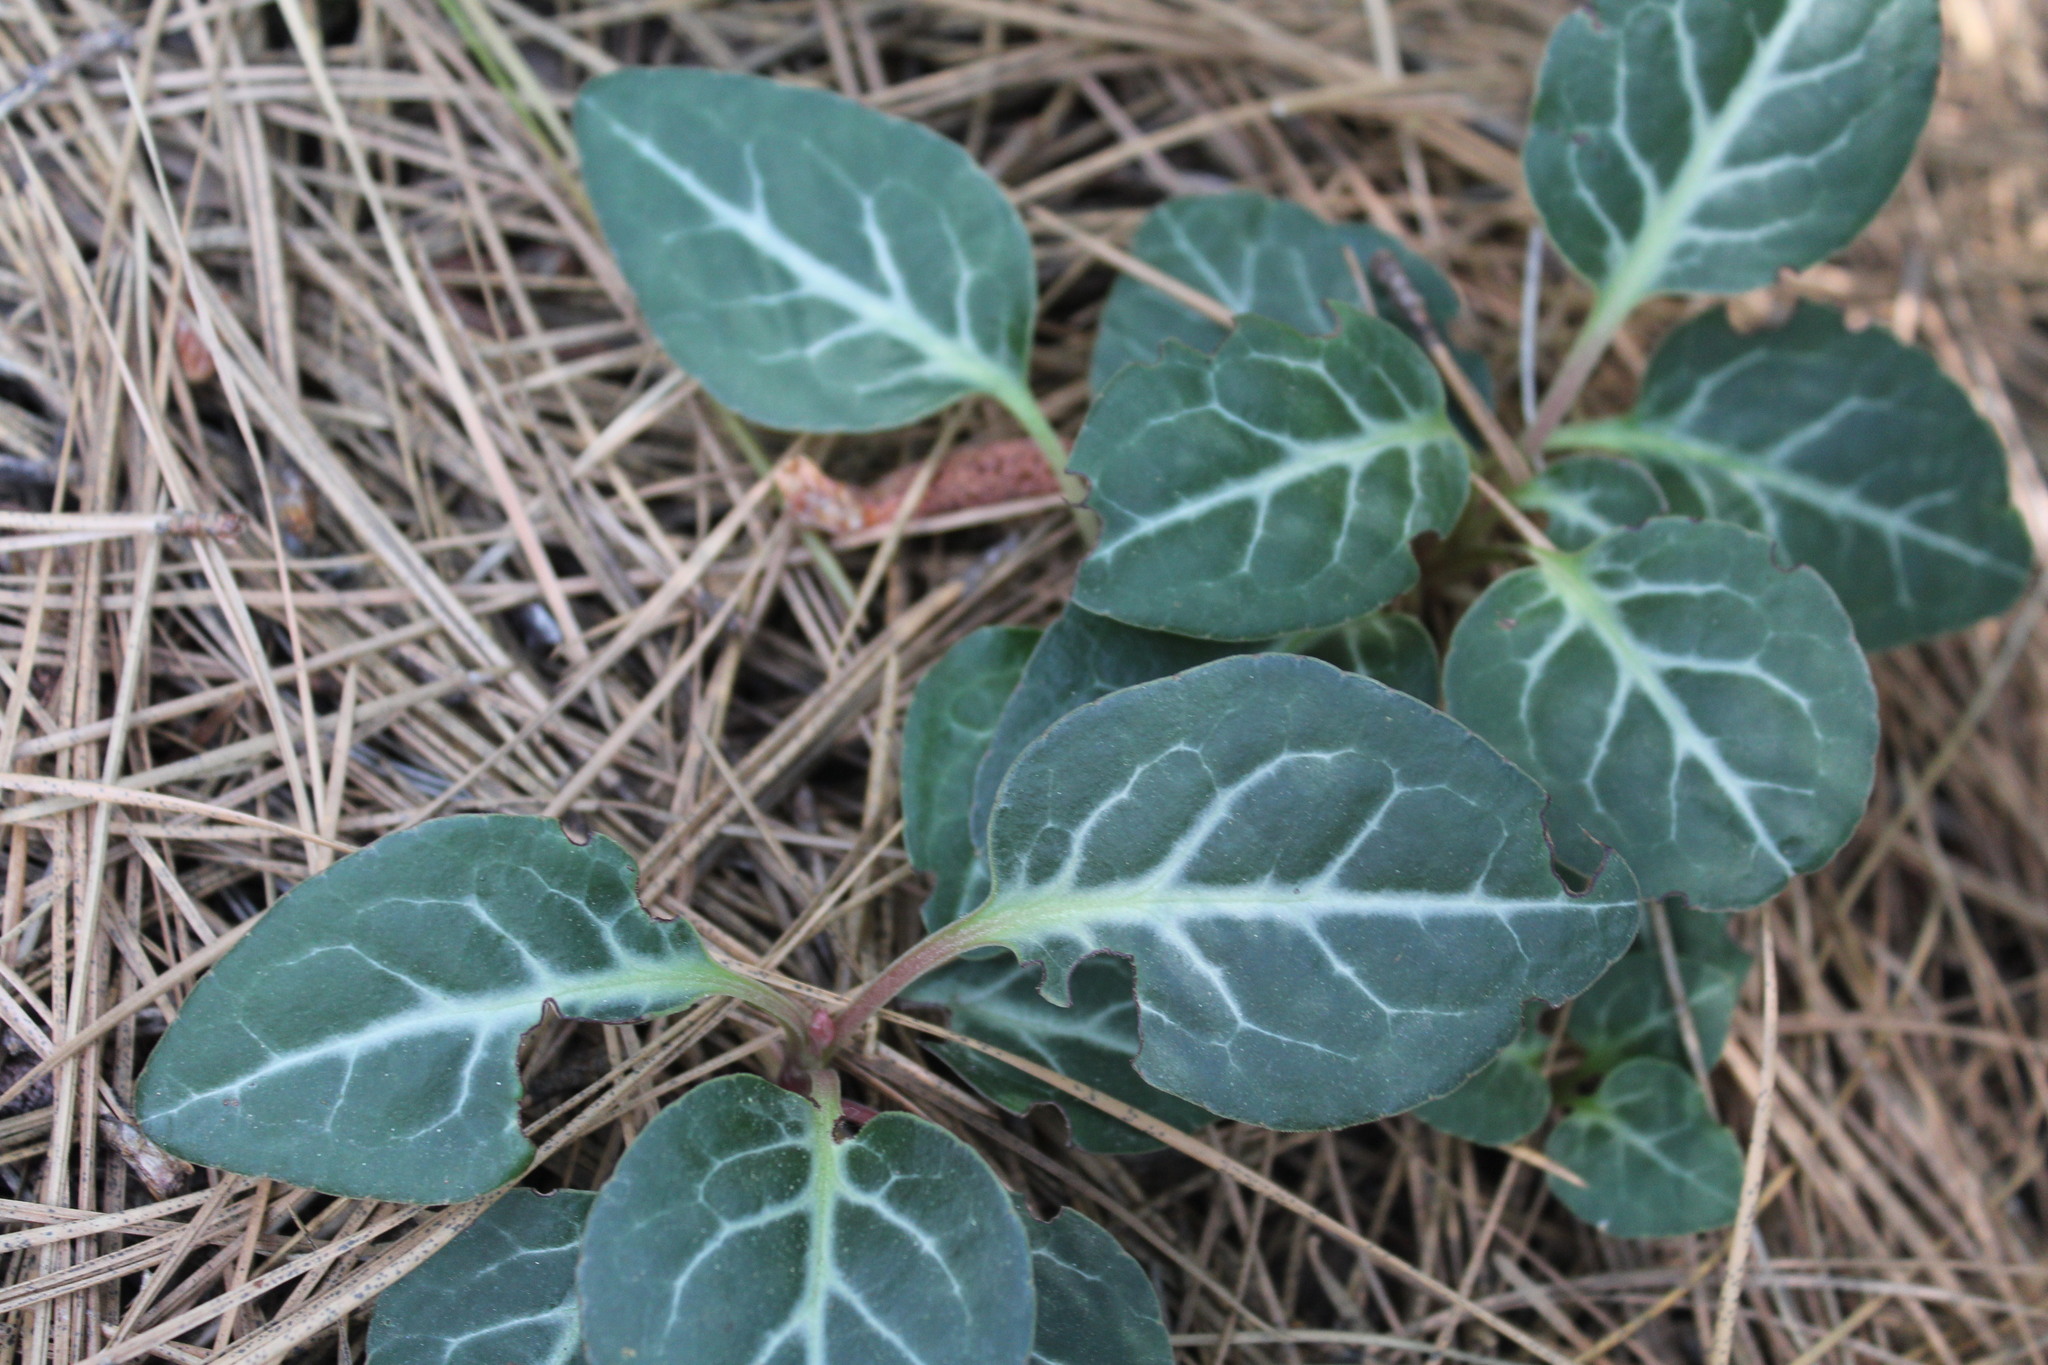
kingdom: Plantae
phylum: Tracheophyta
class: Magnoliopsida
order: Ericales
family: Ericaceae
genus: Pyrola
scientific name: Pyrola picta
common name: White-vein wintergreen
